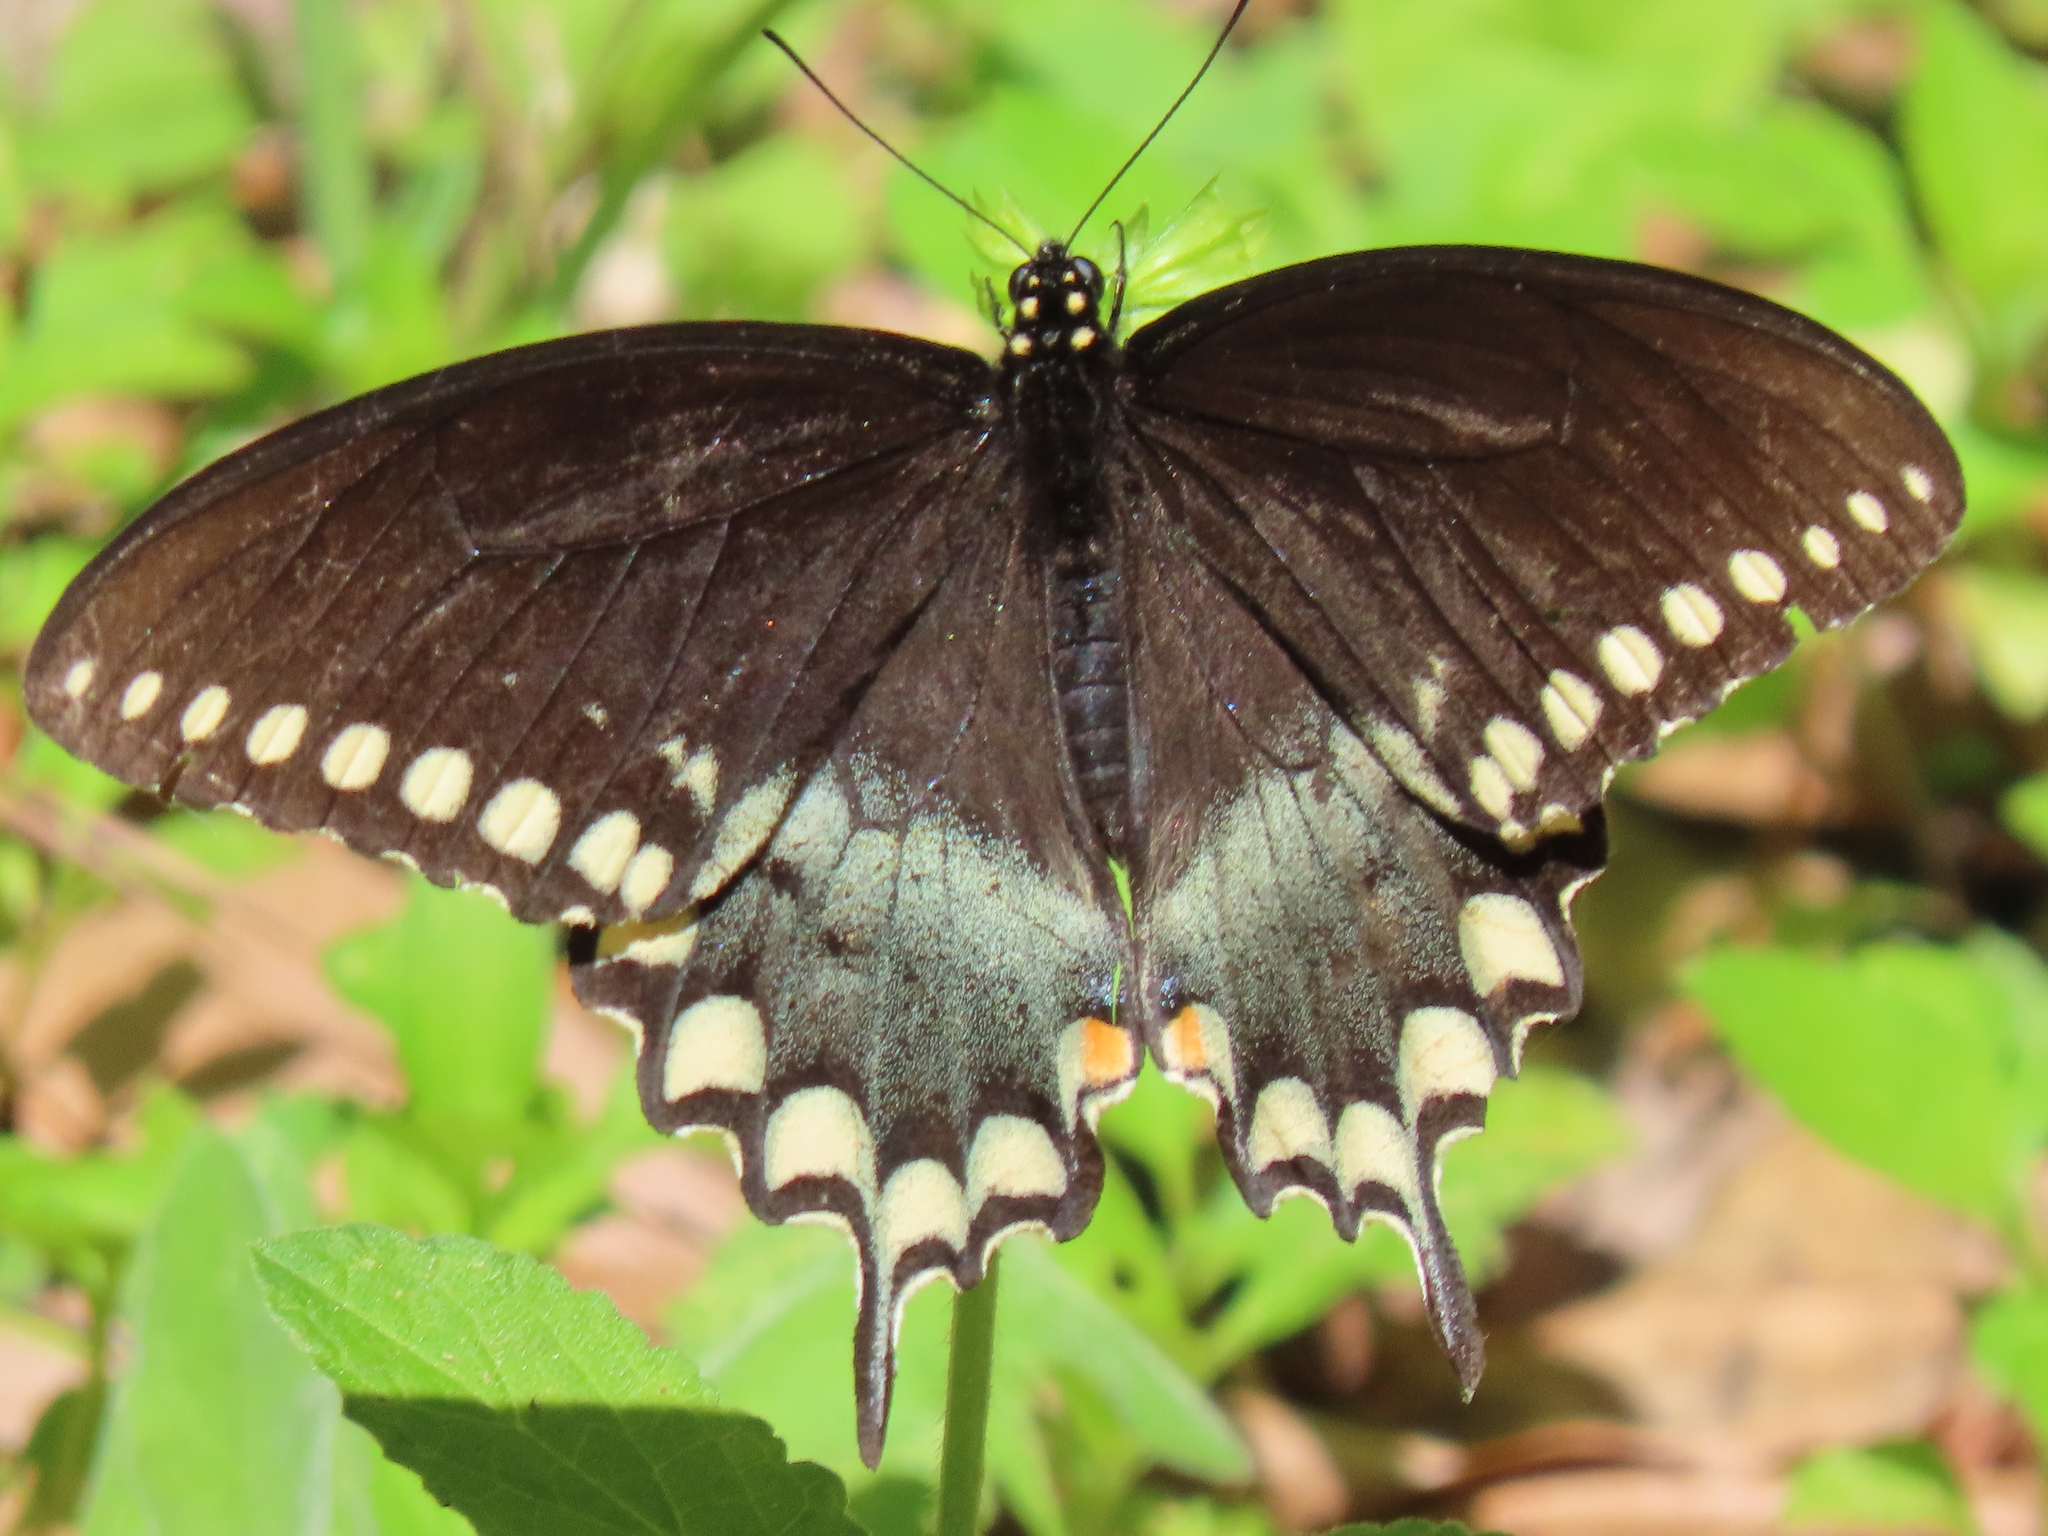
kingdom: Animalia
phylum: Arthropoda
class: Insecta
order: Lepidoptera
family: Papilionidae
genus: Papilio
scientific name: Papilio troilus
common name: Spicebush swallowtail
